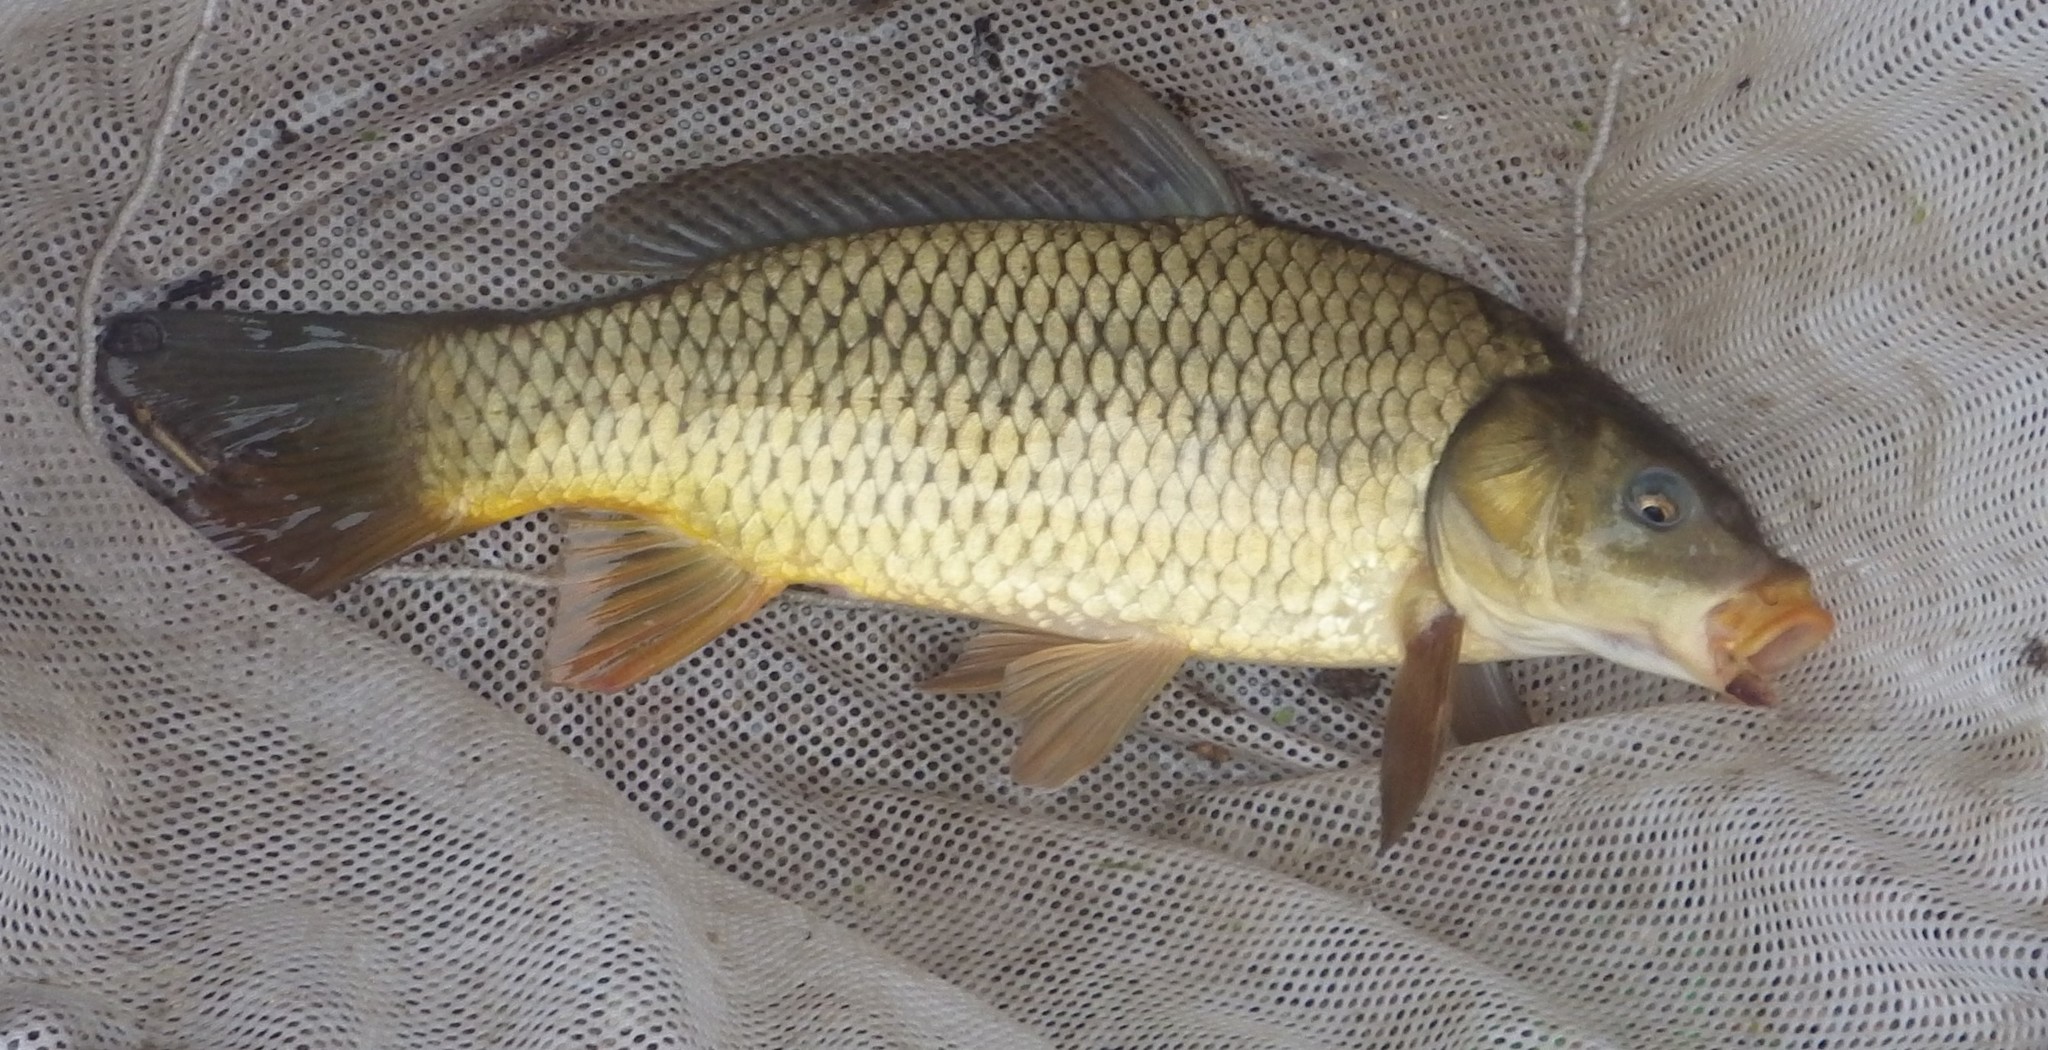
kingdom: Animalia
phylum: Chordata
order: Cypriniformes
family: Cyprinidae
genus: Cyprinus
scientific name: Cyprinus carpio
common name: Common carp
